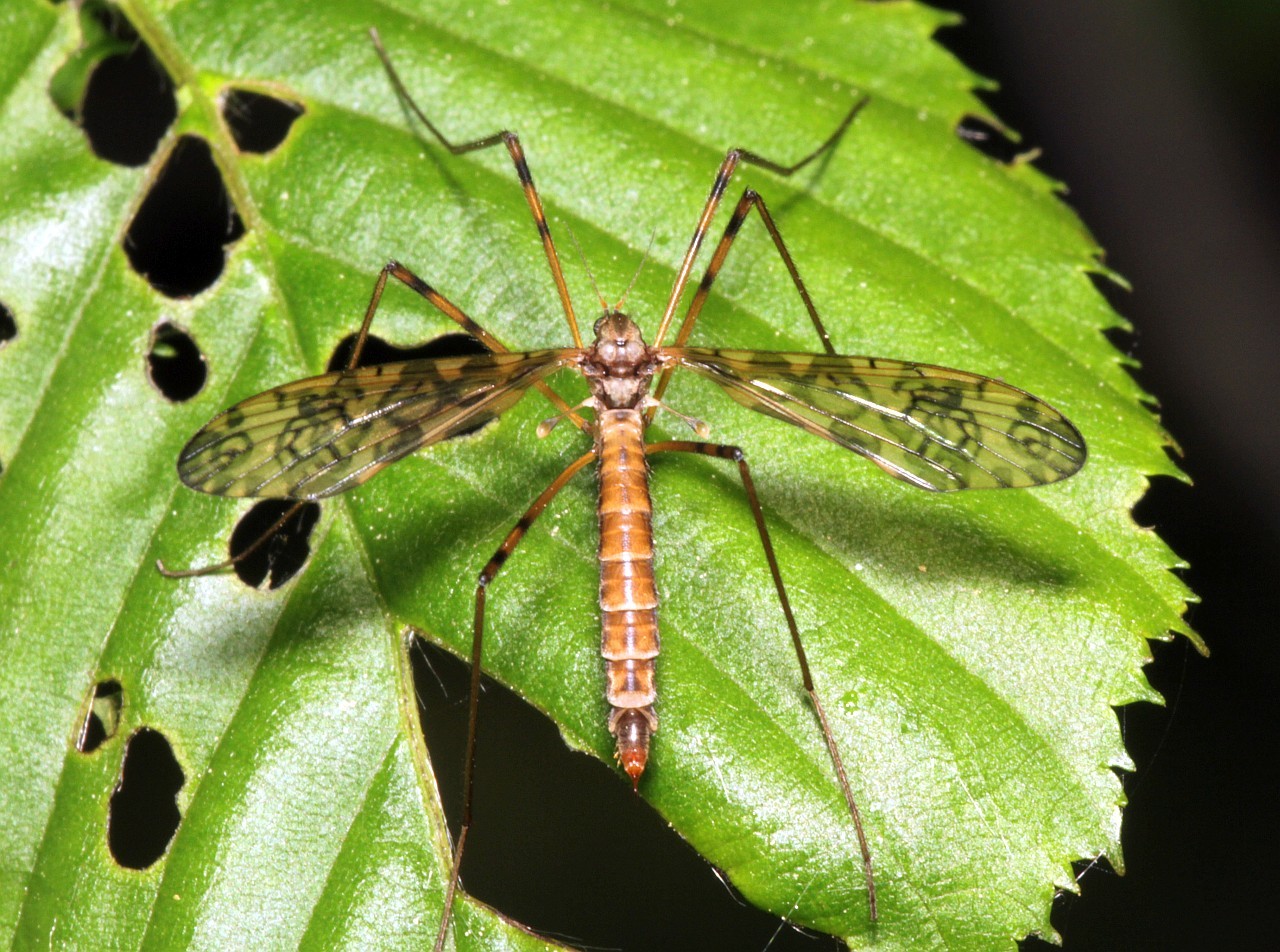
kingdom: Animalia
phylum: Arthropoda
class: Insecta
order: Diptera
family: Limoniidae
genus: Epiphragma
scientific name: Epiphragma ocellare
